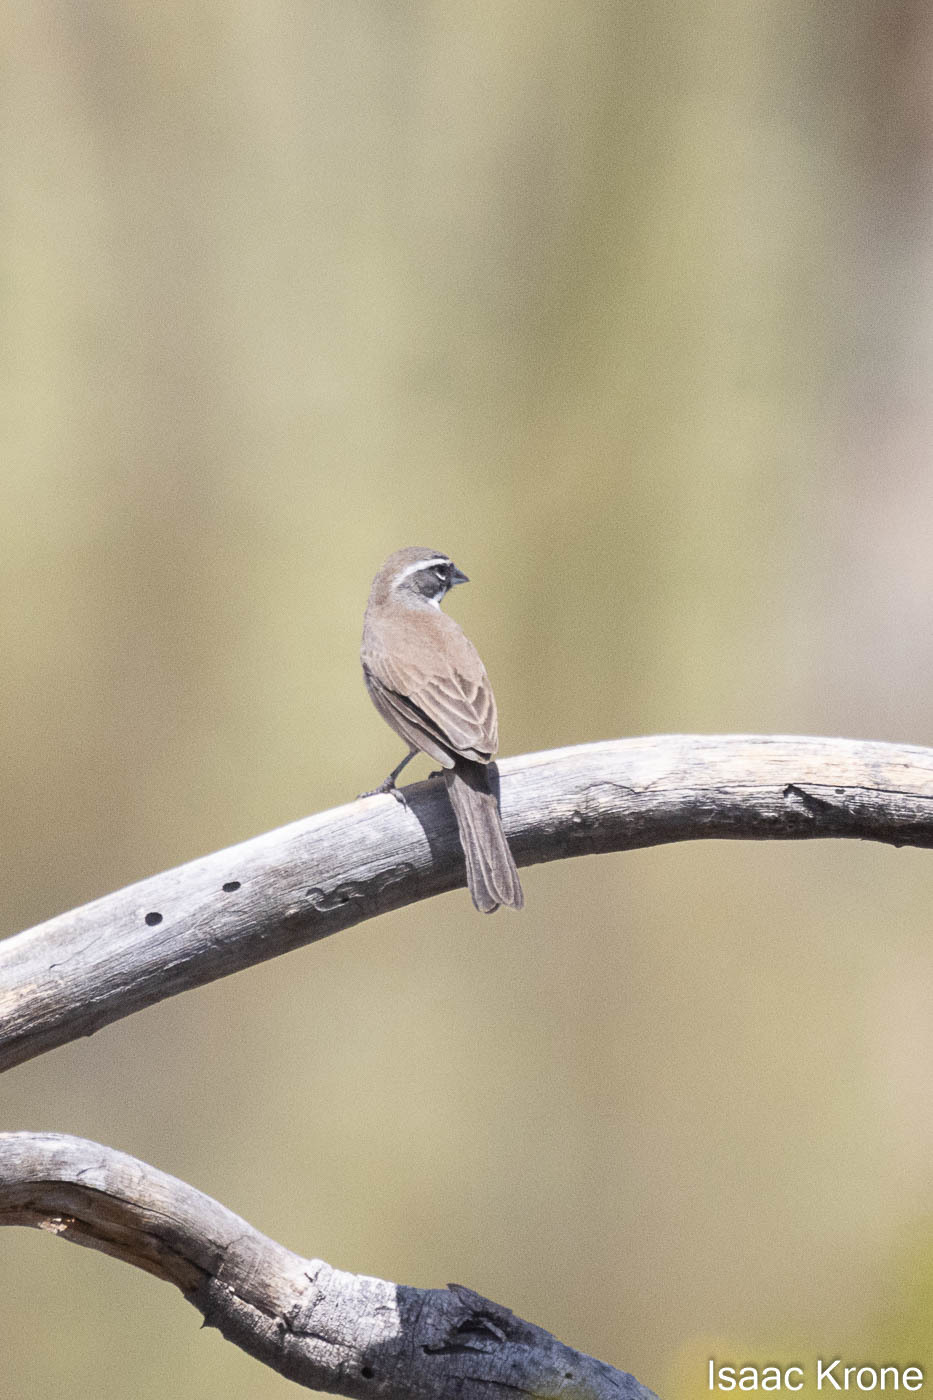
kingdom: Animalia
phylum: Chordata
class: Aves
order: Passeriformes
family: Passerellidae
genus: Amphispiza
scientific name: Amphispiza bilineata
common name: Black-throated sparrow
